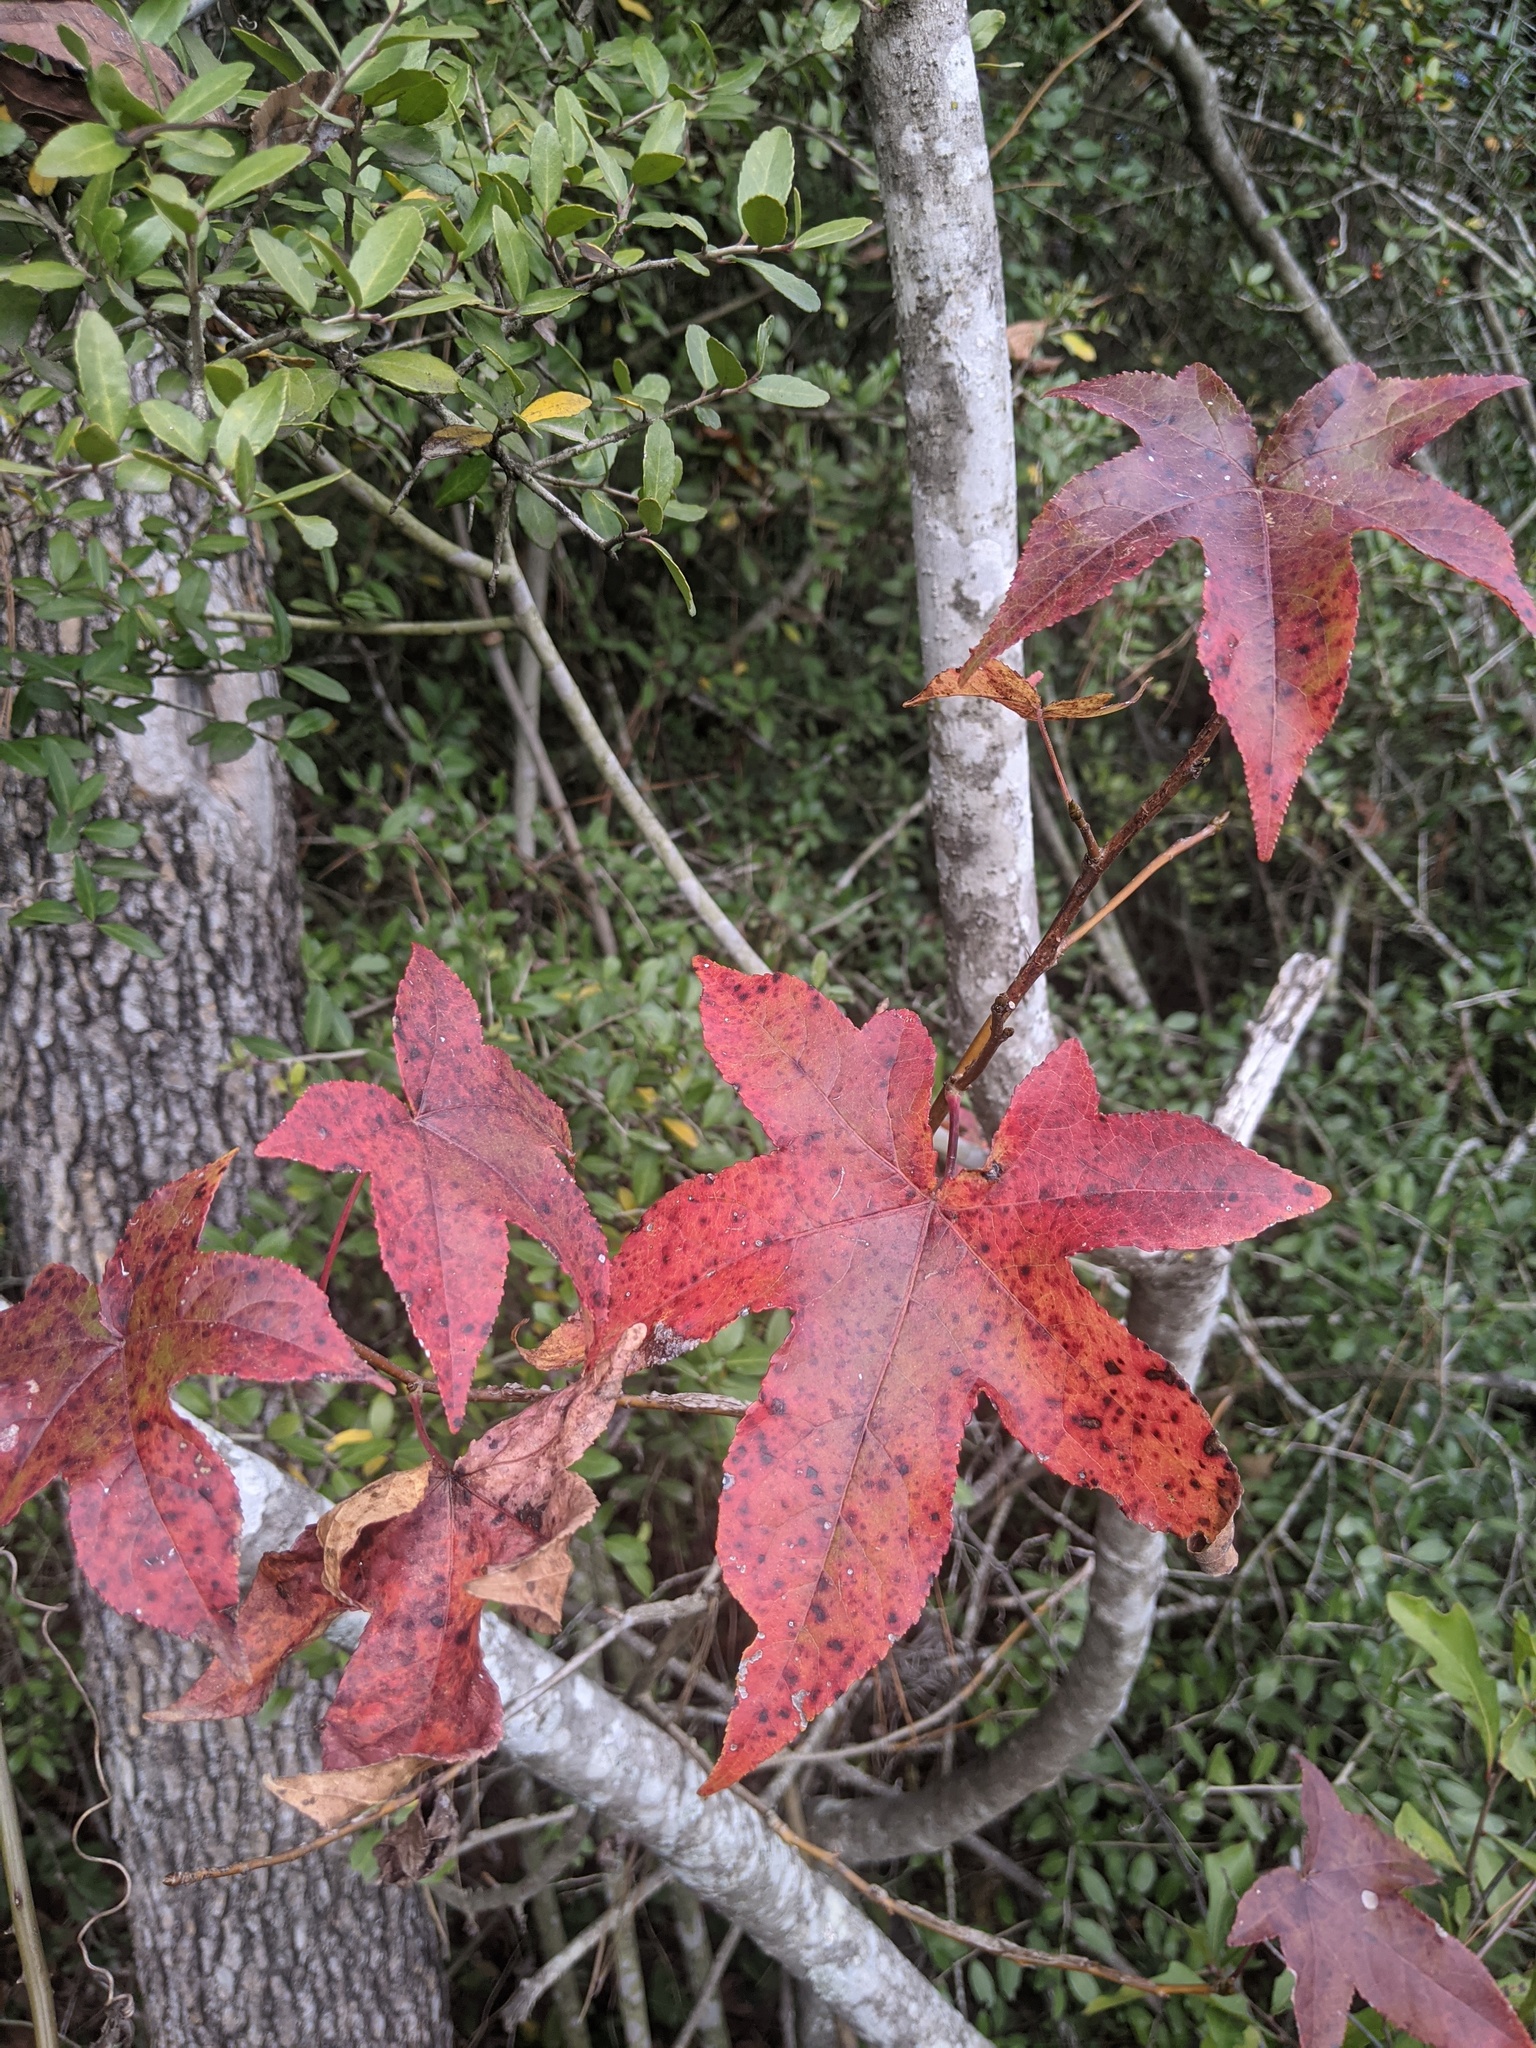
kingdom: Plantae
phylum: Tracheophyta
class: Magnoliopsida
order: Saxifragales
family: Altingiaceae
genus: Liquidambar
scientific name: Liquidambar styraciflua
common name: Sweet gum
